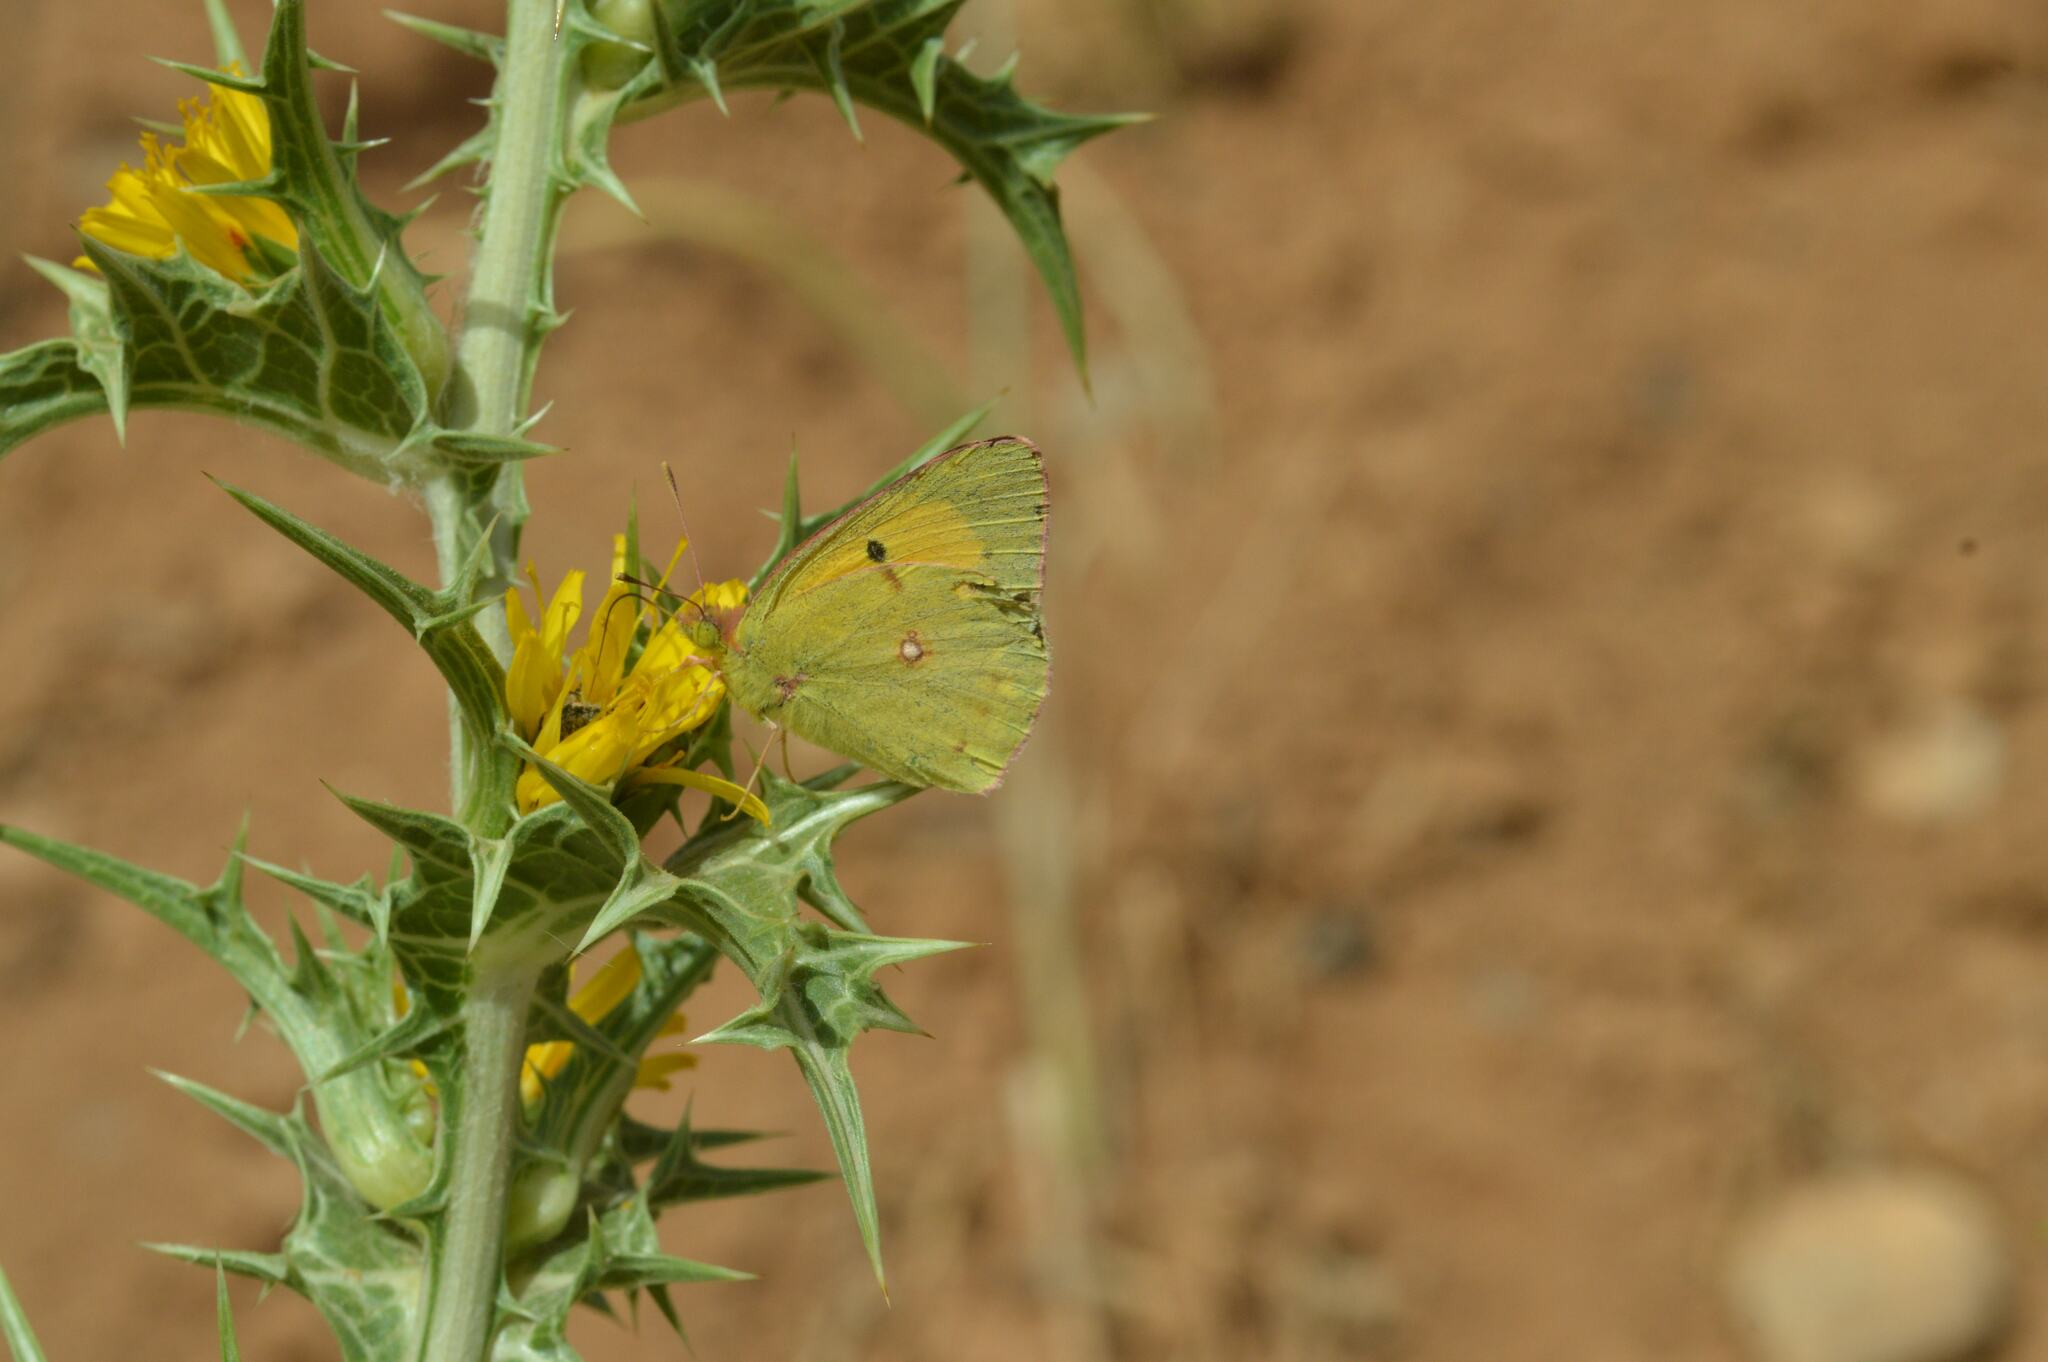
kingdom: Animalia
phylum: Arthropoda
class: Insecta
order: Lepidoptera
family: Pieridae
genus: Colias
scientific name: Colias croceus
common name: Clouded yellow
